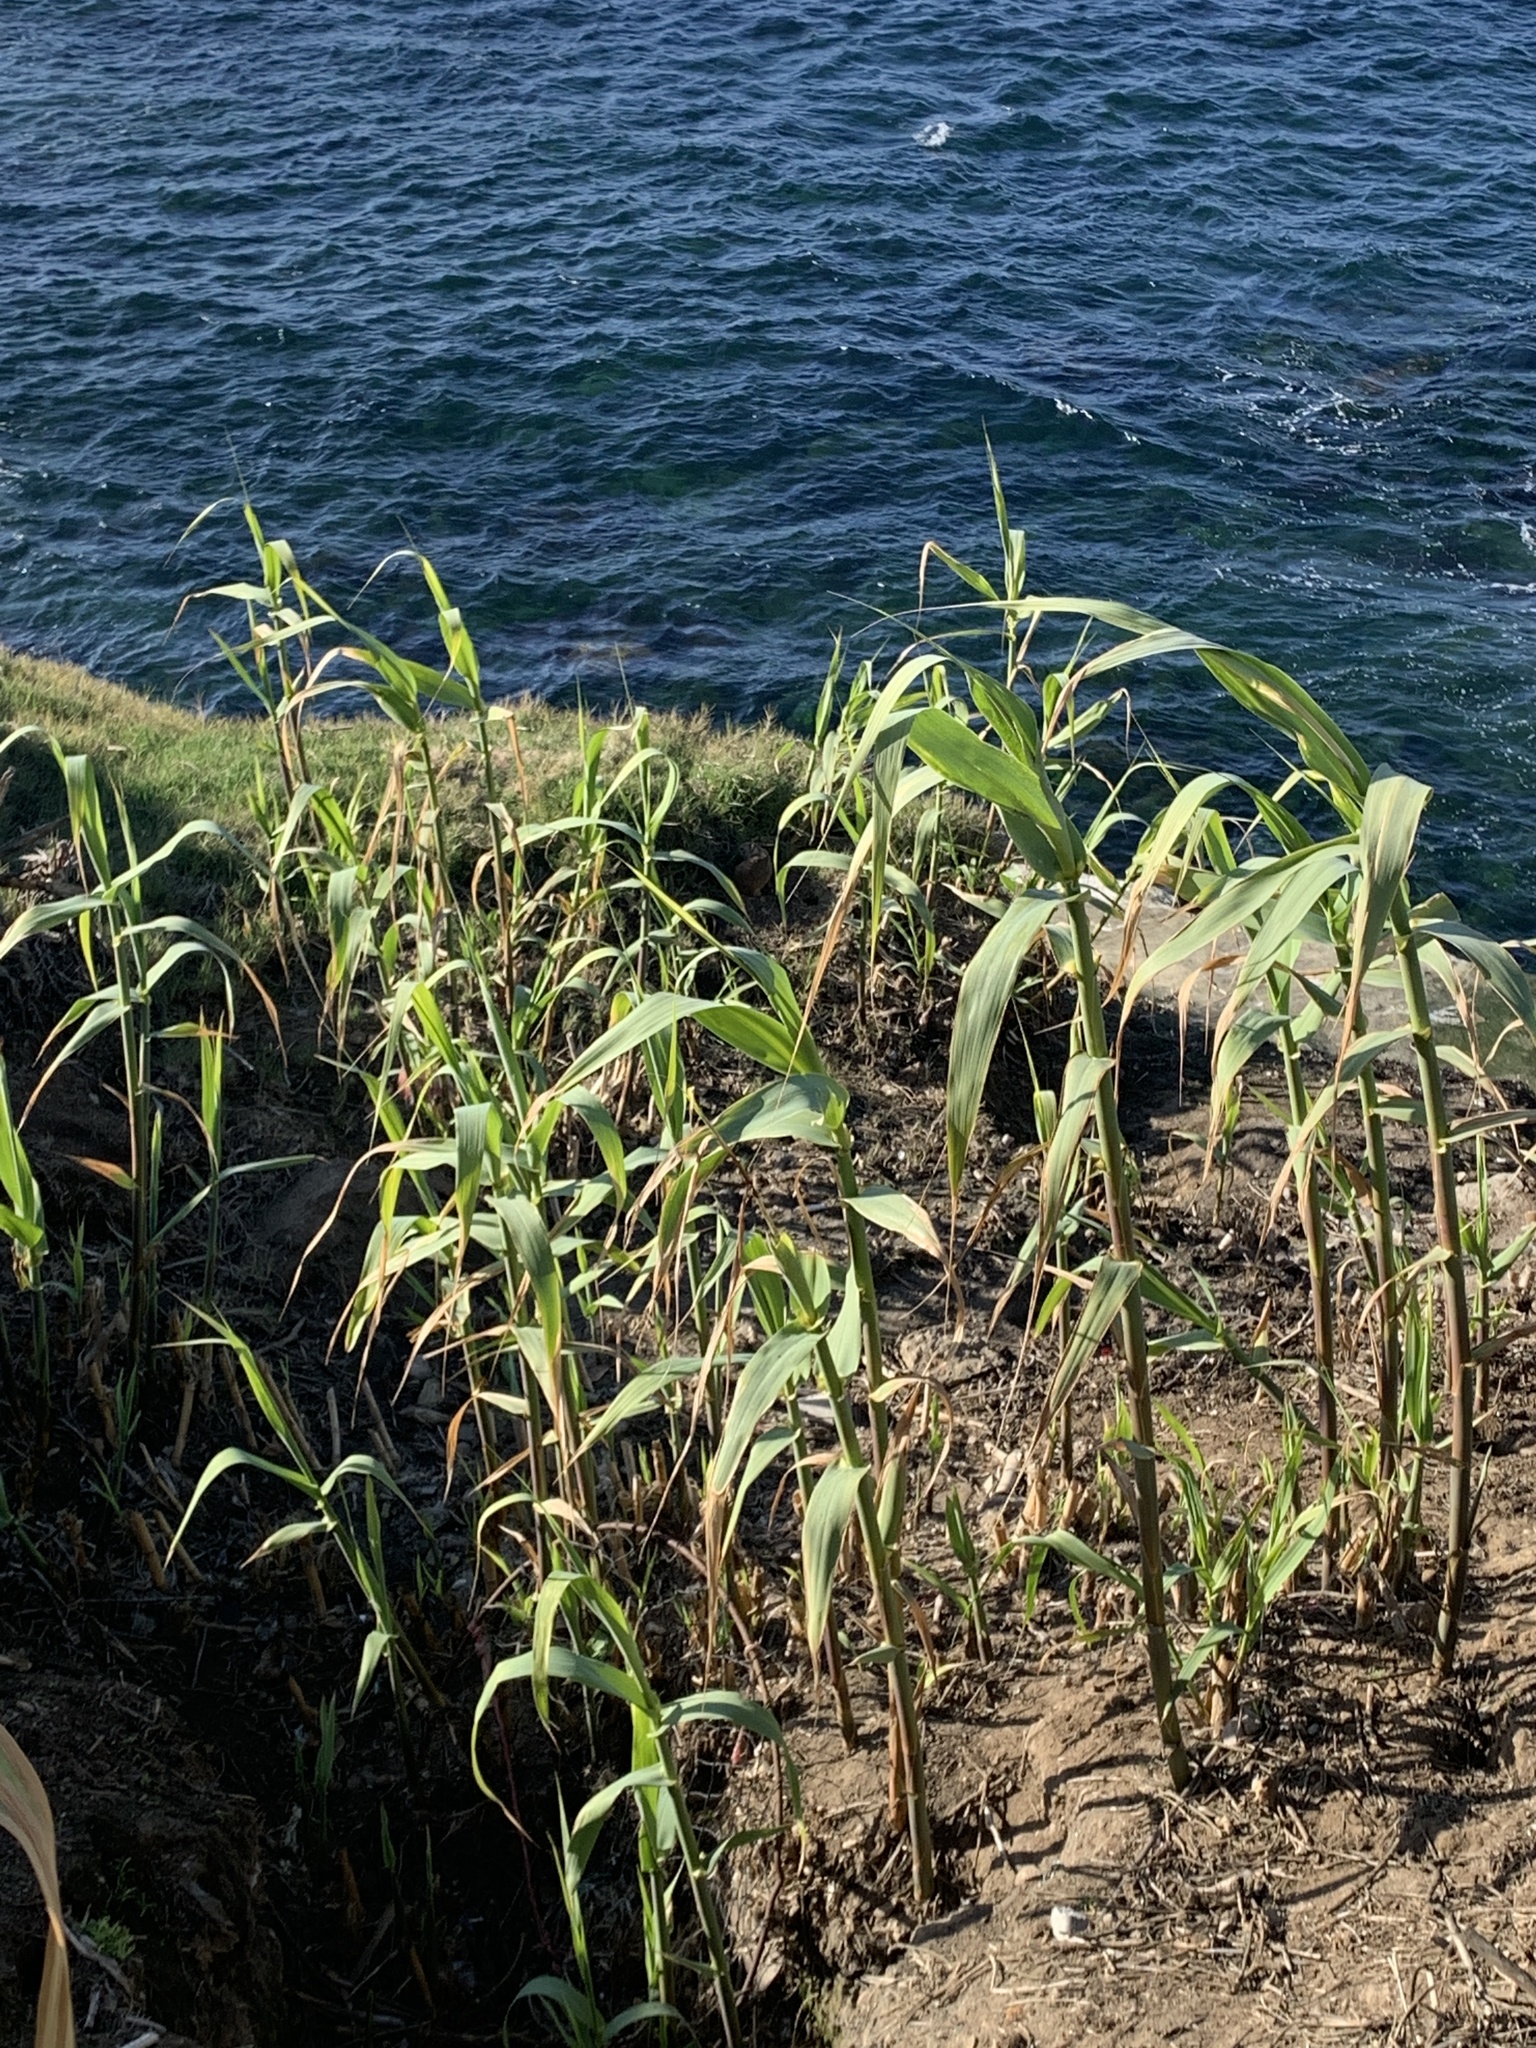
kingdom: Plantae
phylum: Tracheophyta
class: Liliopsida
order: Poales
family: Poaceae
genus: Arundo
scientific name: Arundo donax
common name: Giant reed
